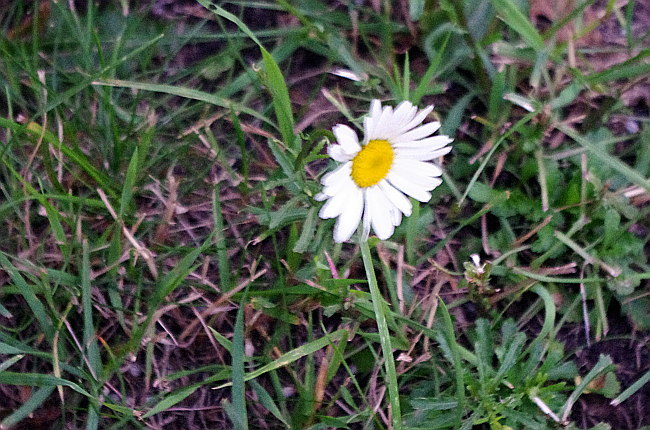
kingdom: Plantae
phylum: Tracheophyta
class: Magnoliopsida
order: Asterales
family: Asteraceae
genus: Leucanthemum
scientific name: Leucanthemum vulgare
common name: Oxeye daisy
